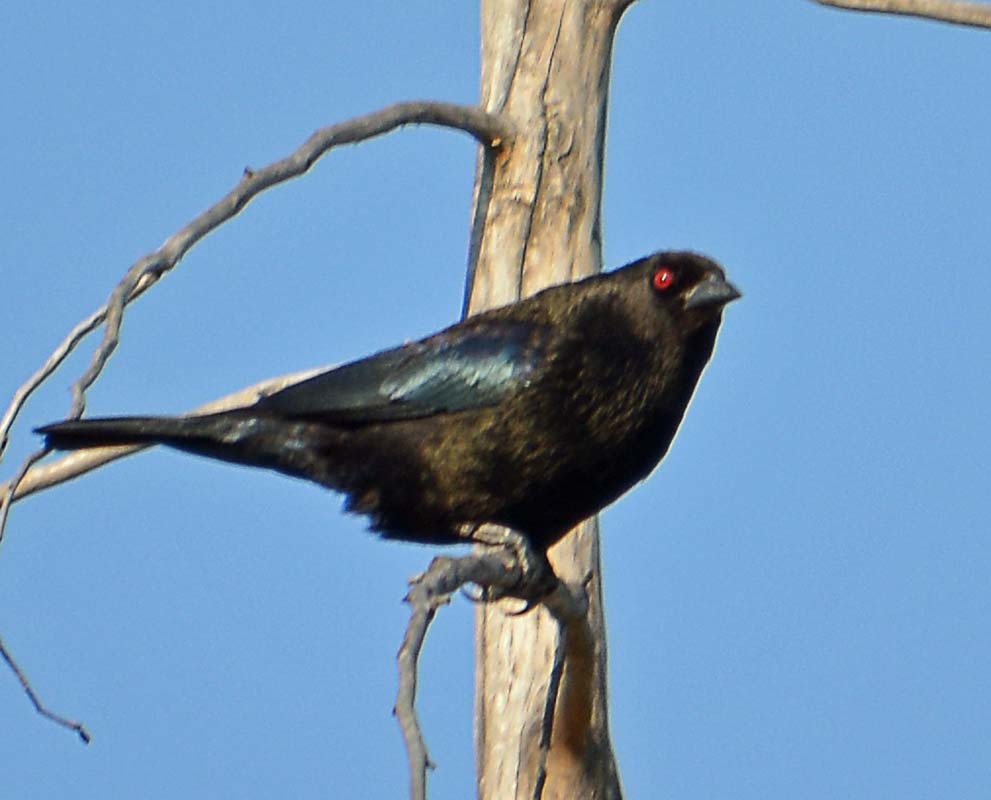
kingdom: Animalia
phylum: Chordata
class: Aves
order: Passeriformes
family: Icteridae
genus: Molothrus
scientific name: Molothrus aeneus
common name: Bronzed cowbird
